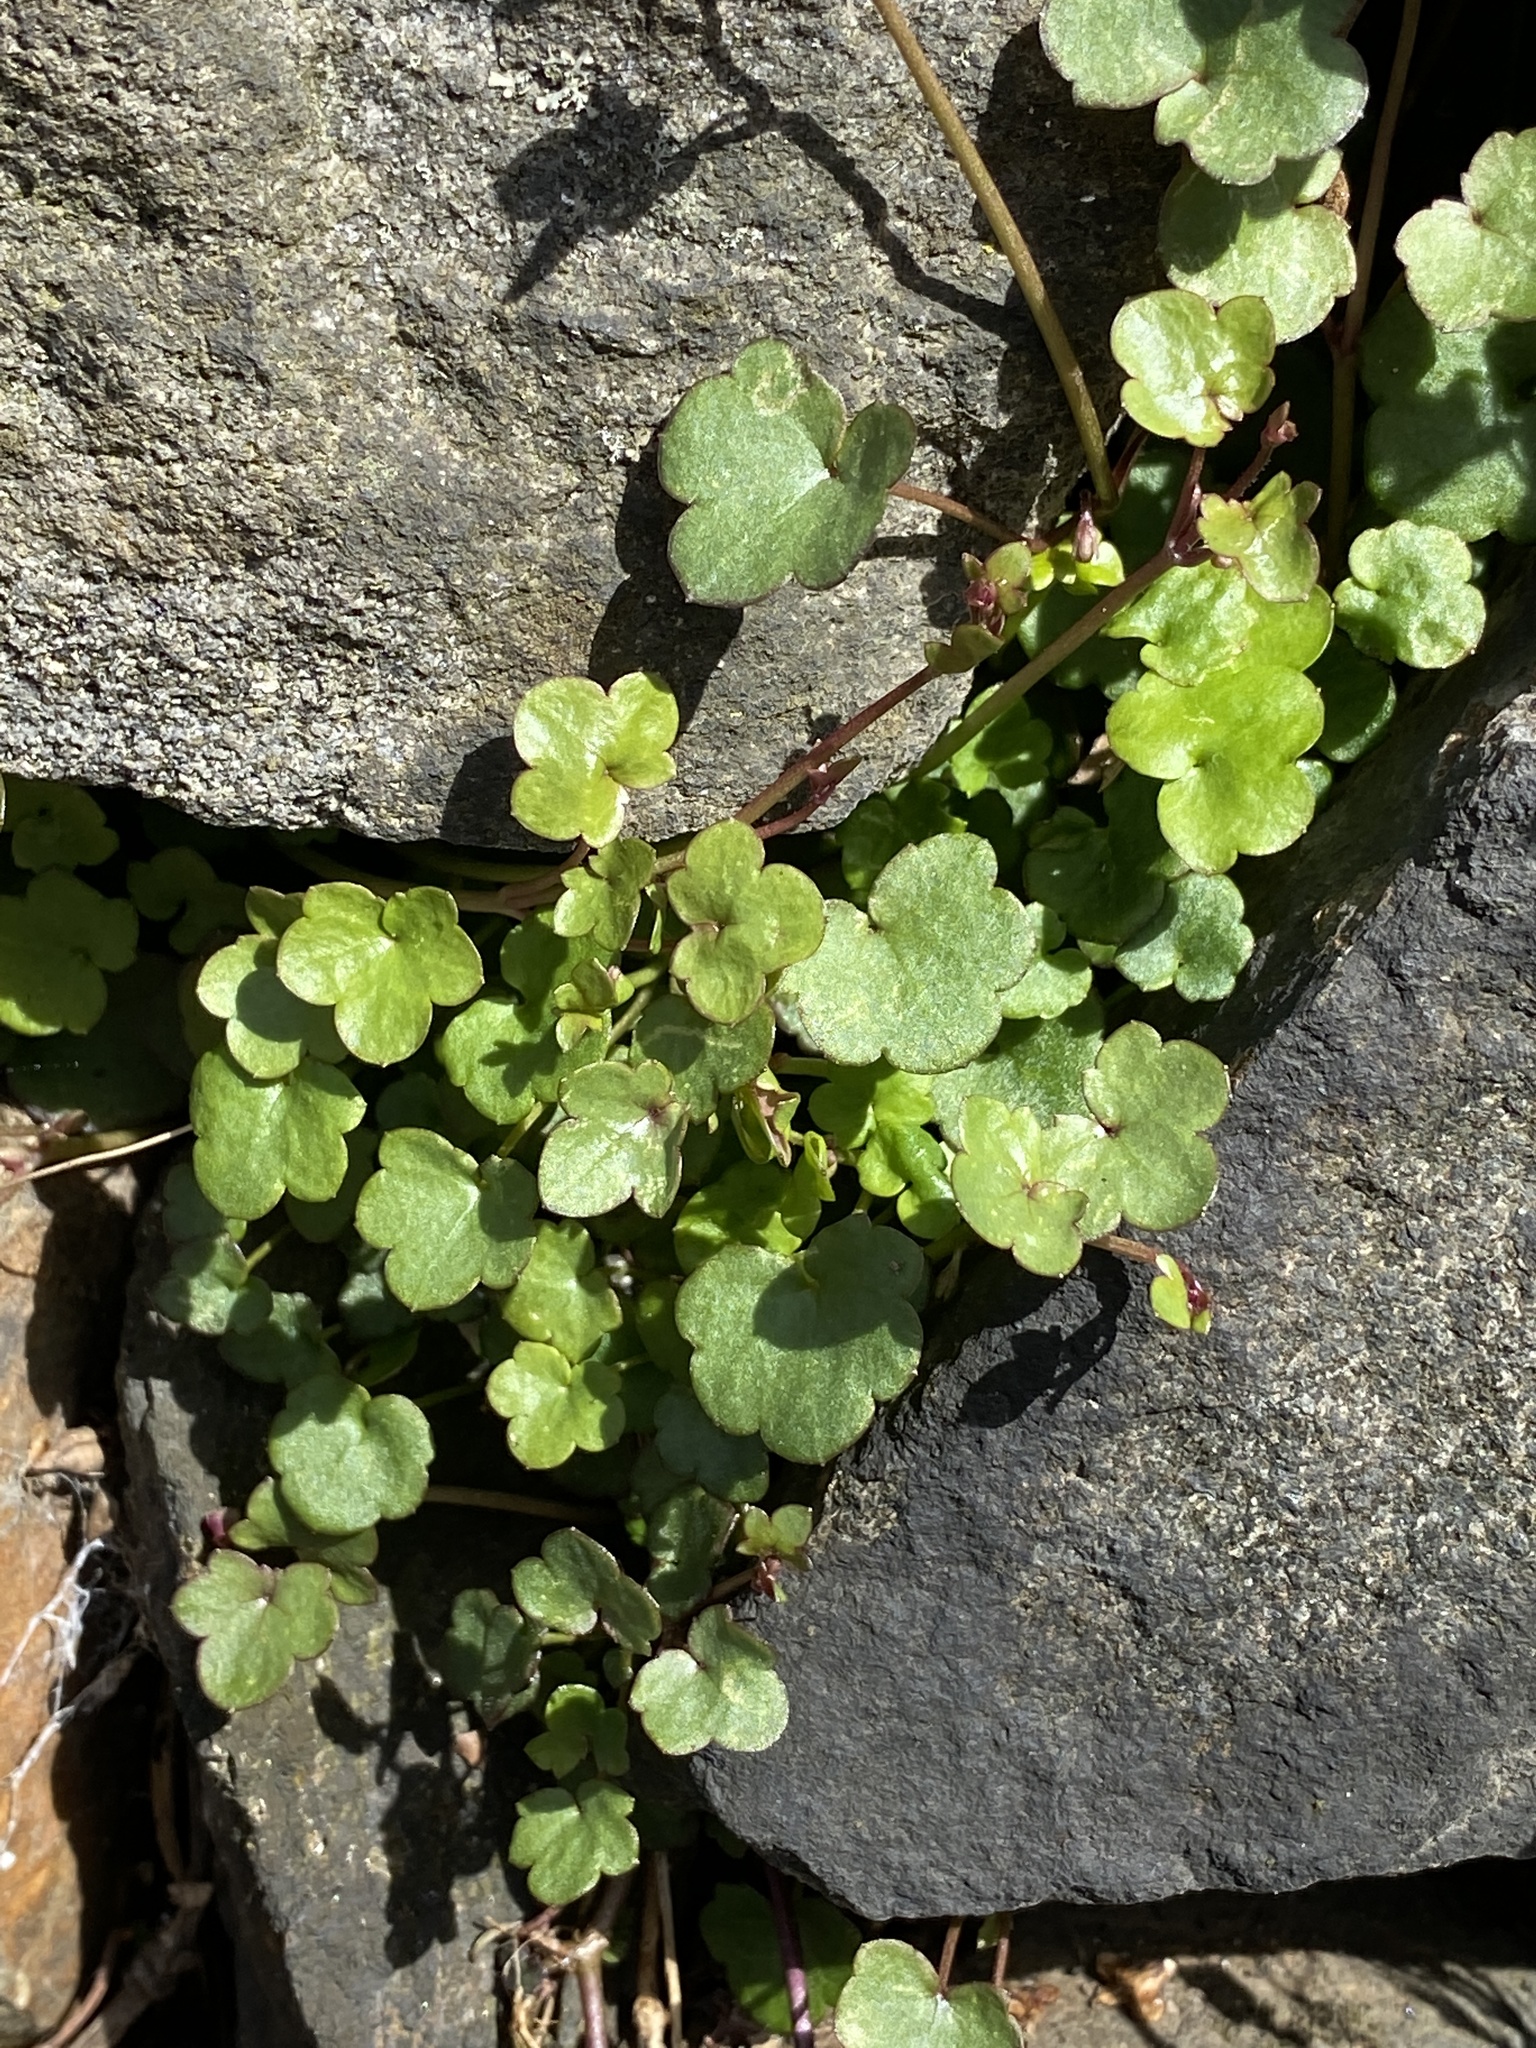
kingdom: Plantae
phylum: Tracheophyta
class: Magnoliopsida
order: Lamiales
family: Plantaginaceae
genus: Cymbalaria
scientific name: Cymbalaria muralis
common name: Ivy-leaved toadflax
